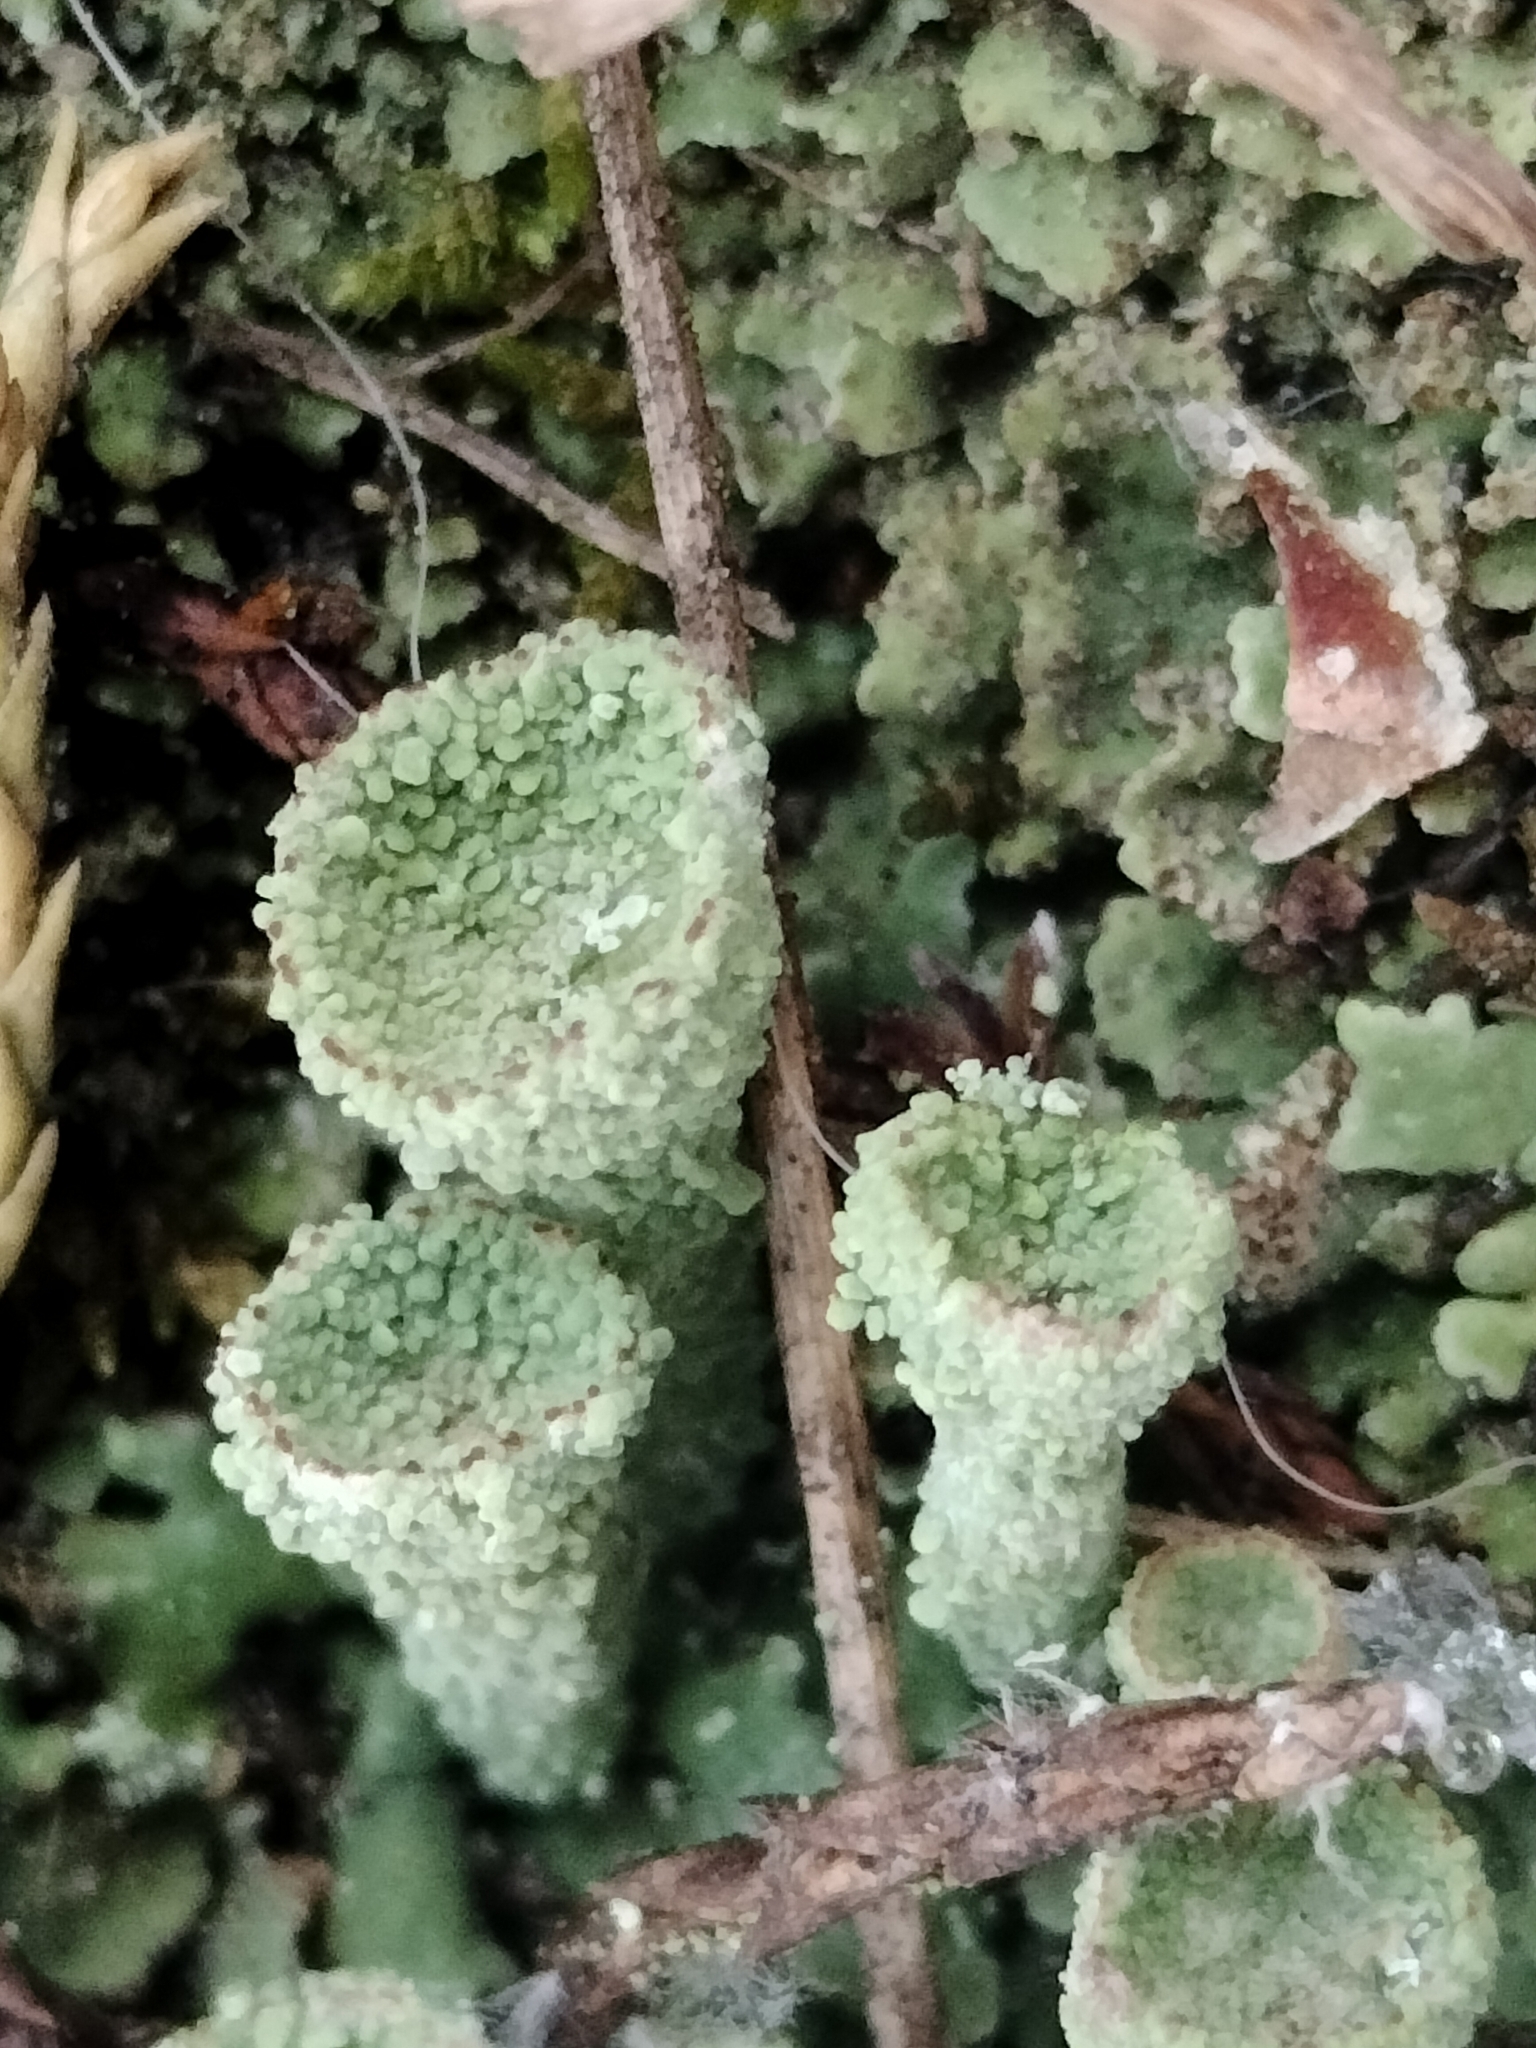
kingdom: Fungi
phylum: Ascomycota
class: Lecanoromycetes
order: Lecanorales
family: Cladoniaceae
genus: Cladonia
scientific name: Cladonia pyxidata
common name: Pebbled pixie cup
